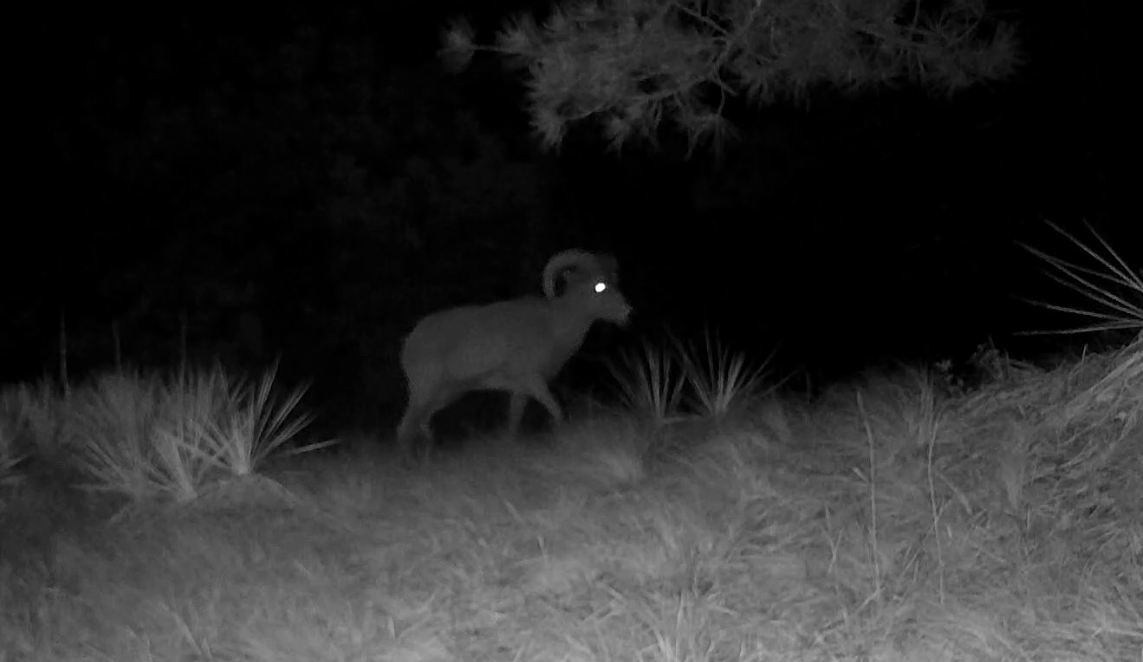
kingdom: Animalia
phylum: Chordata
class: Mammalia
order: Artiodactyla
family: Bovidae
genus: Ovis
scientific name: Ovis canadensis
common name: Bighorn sheep
